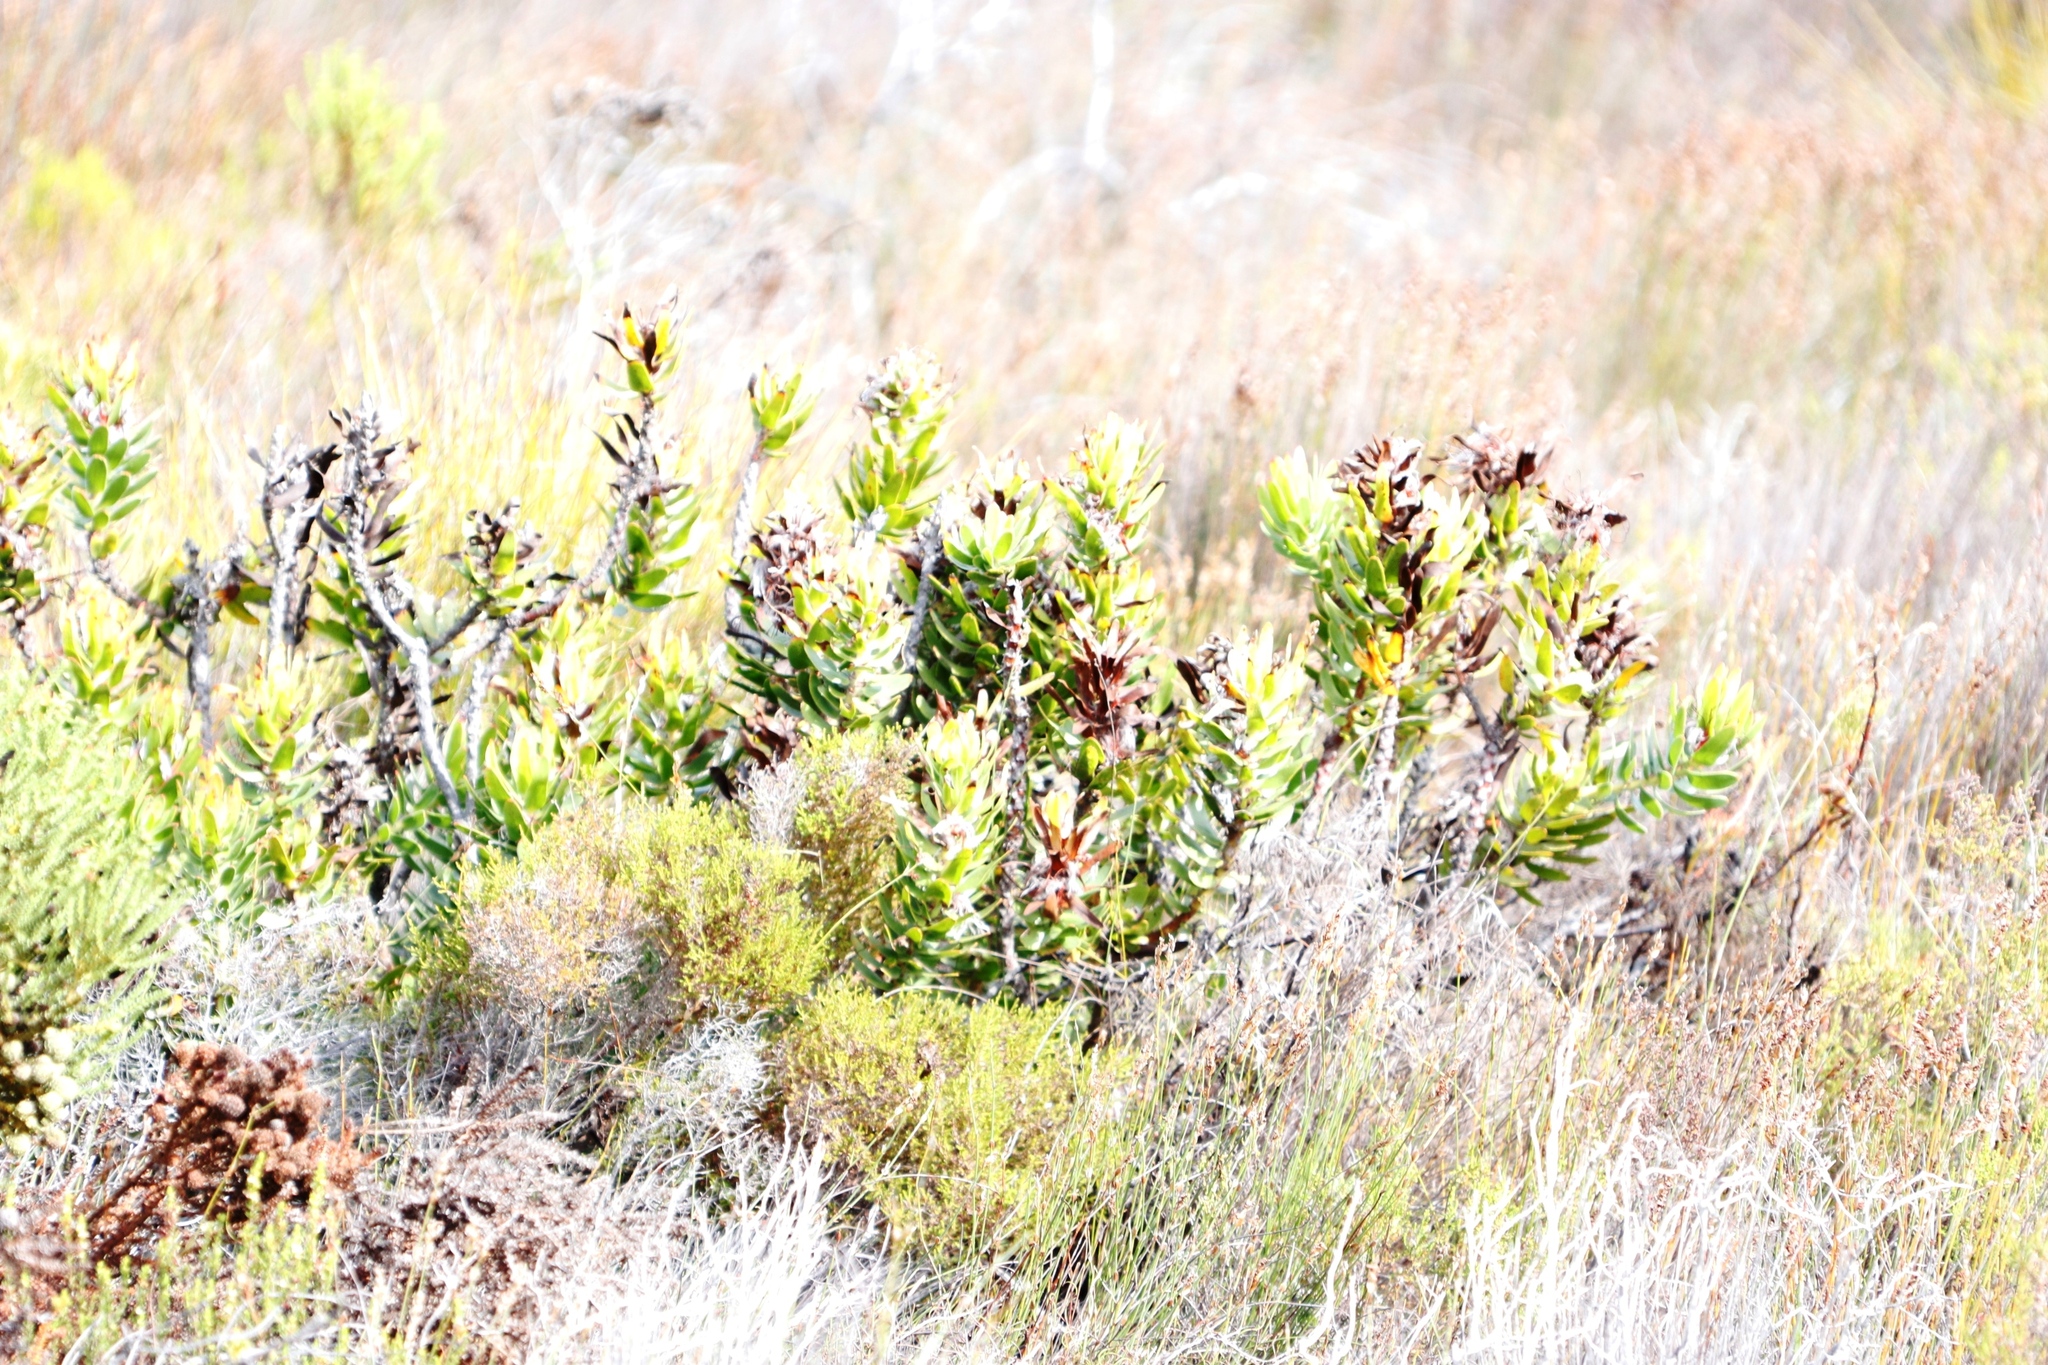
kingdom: Plantae
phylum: Tracheophyta
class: Magnoliopsida
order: Proteales
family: Proteaceae
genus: Mimetes
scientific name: Mimetes cucullatus
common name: Common pagoda
